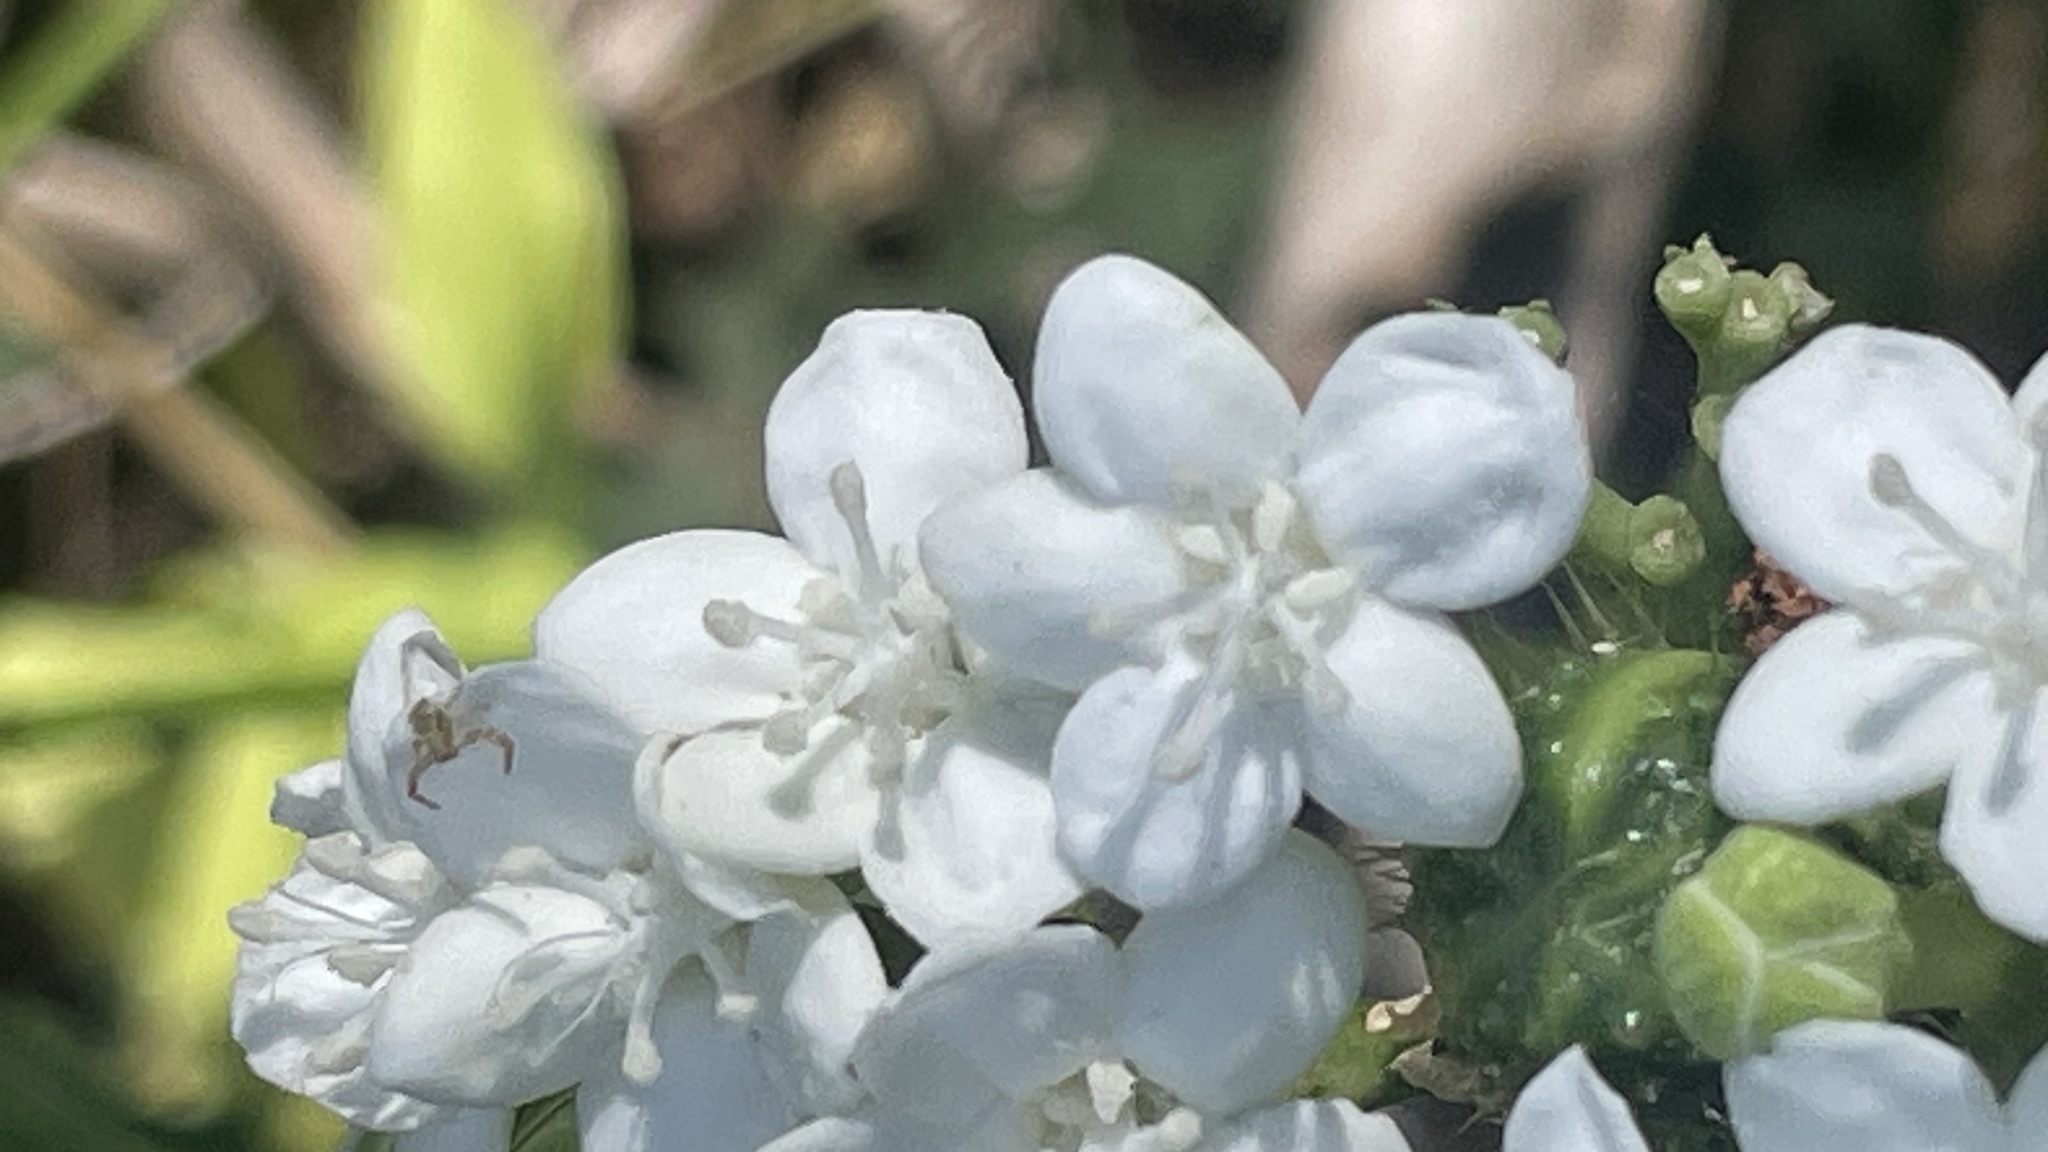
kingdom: Plantae
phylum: Tracheophyta
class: Magnoliopsida
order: Malpighiales
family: Euphorbiaceae
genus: Cnidoscolus
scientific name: Cnidoscolus aconitifolius
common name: Cabbage-star
